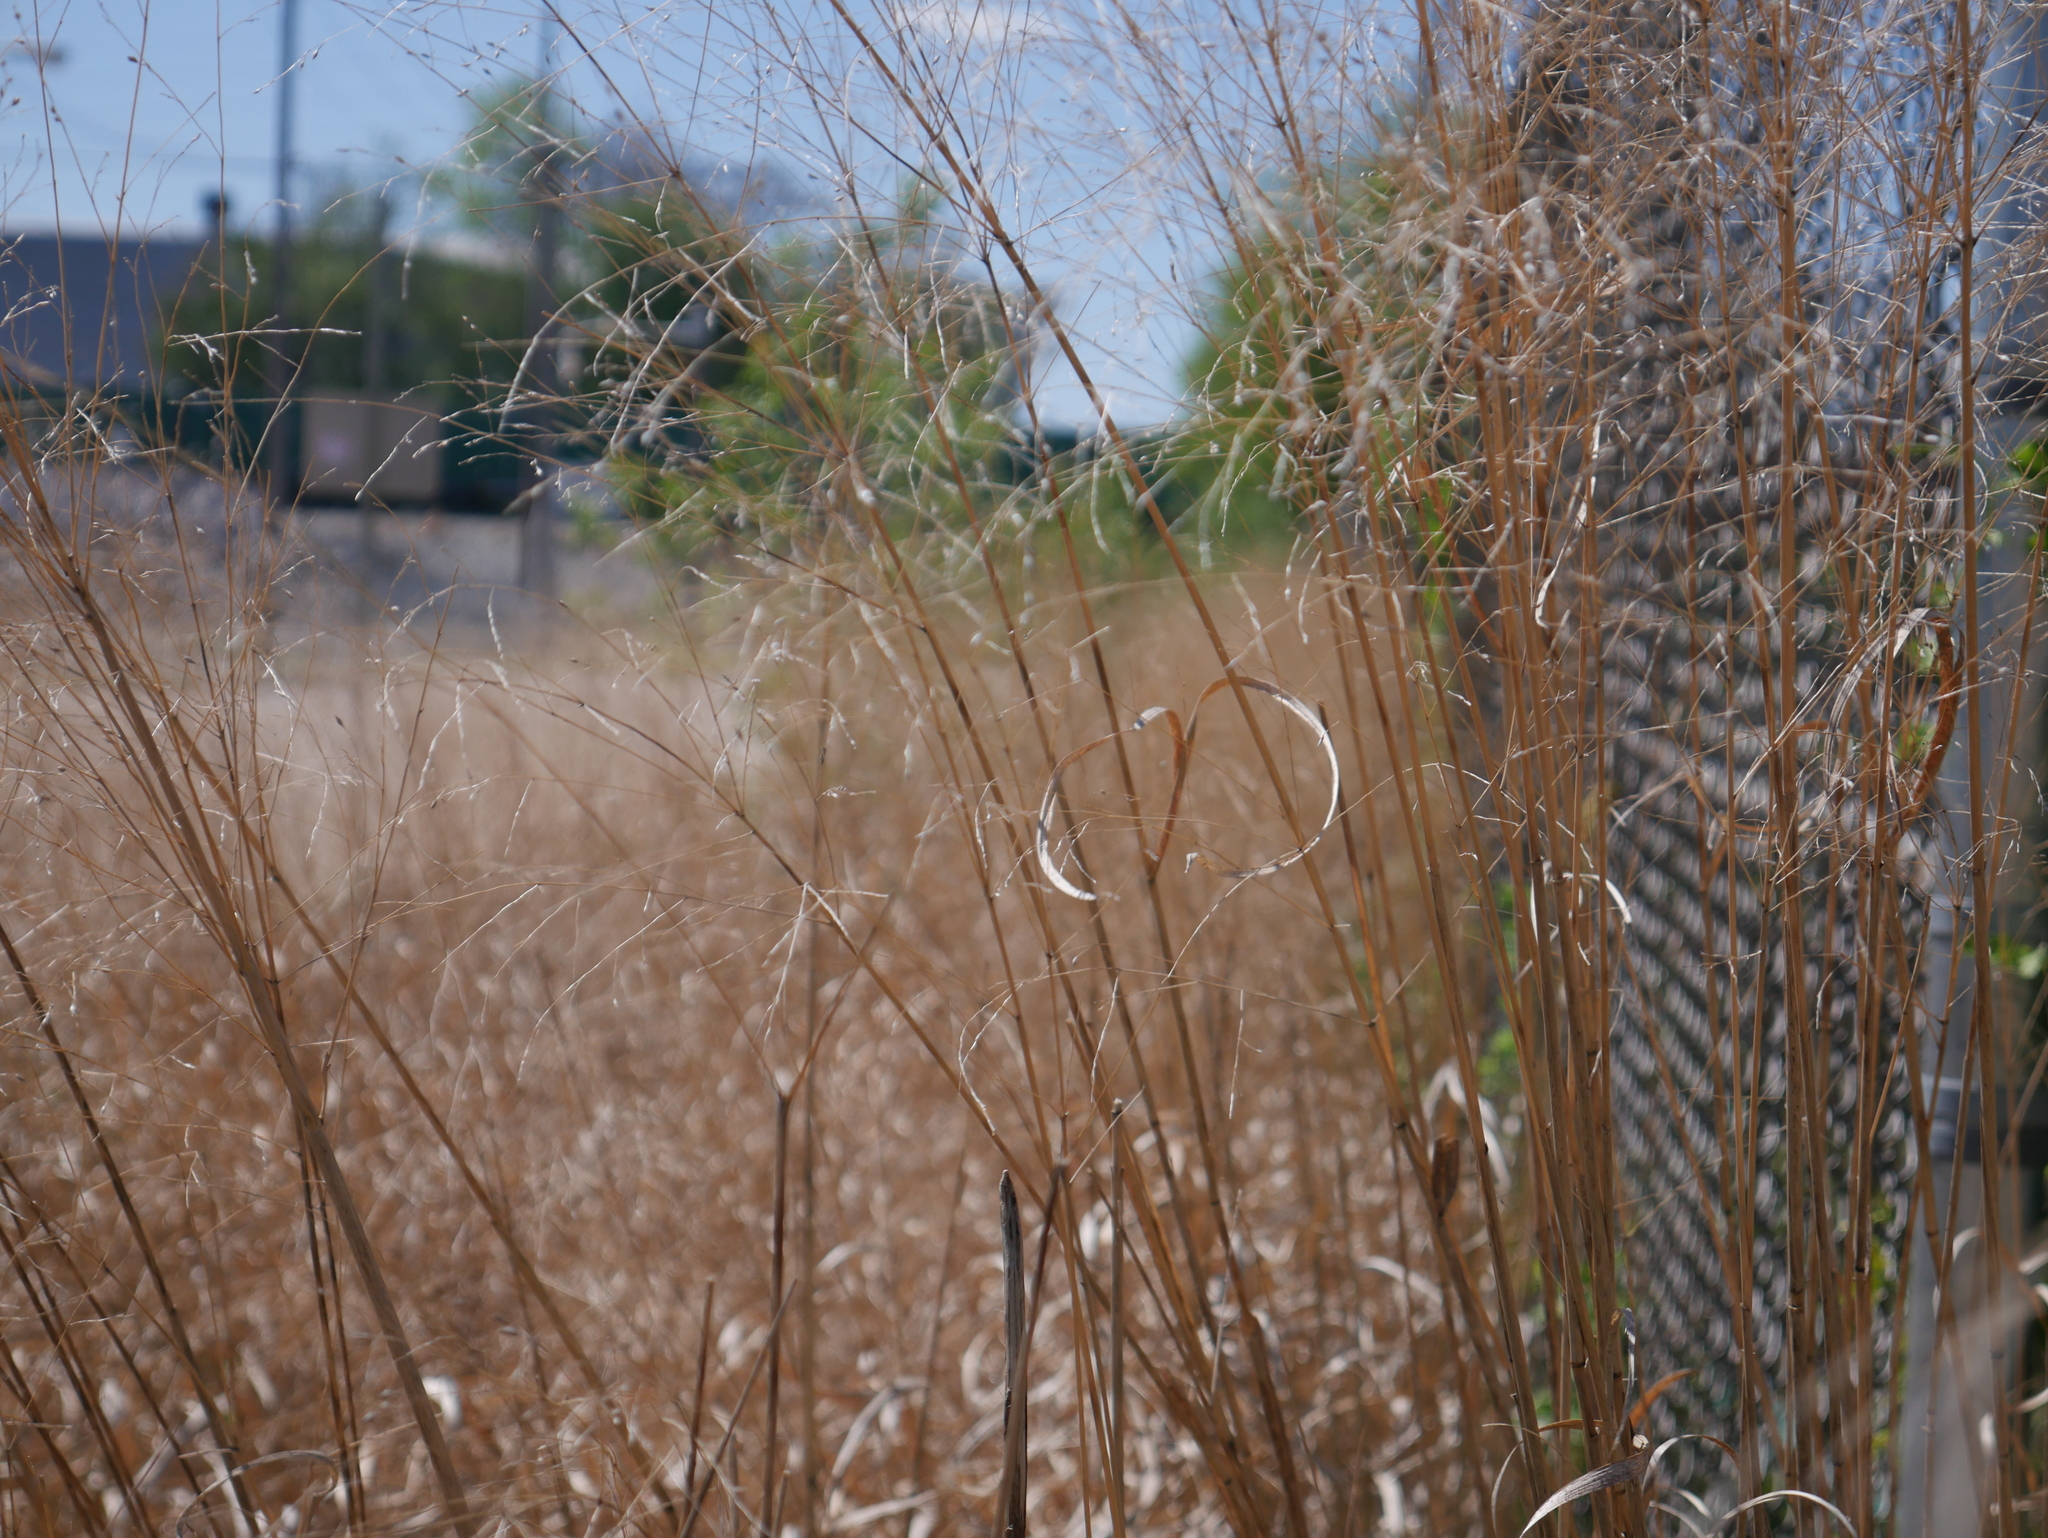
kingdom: Plantae
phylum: Tracheophyta
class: Liliopsida
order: Poales
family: Poaceae
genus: Panicum
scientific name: Panicum virgatum
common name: Switchgrass
